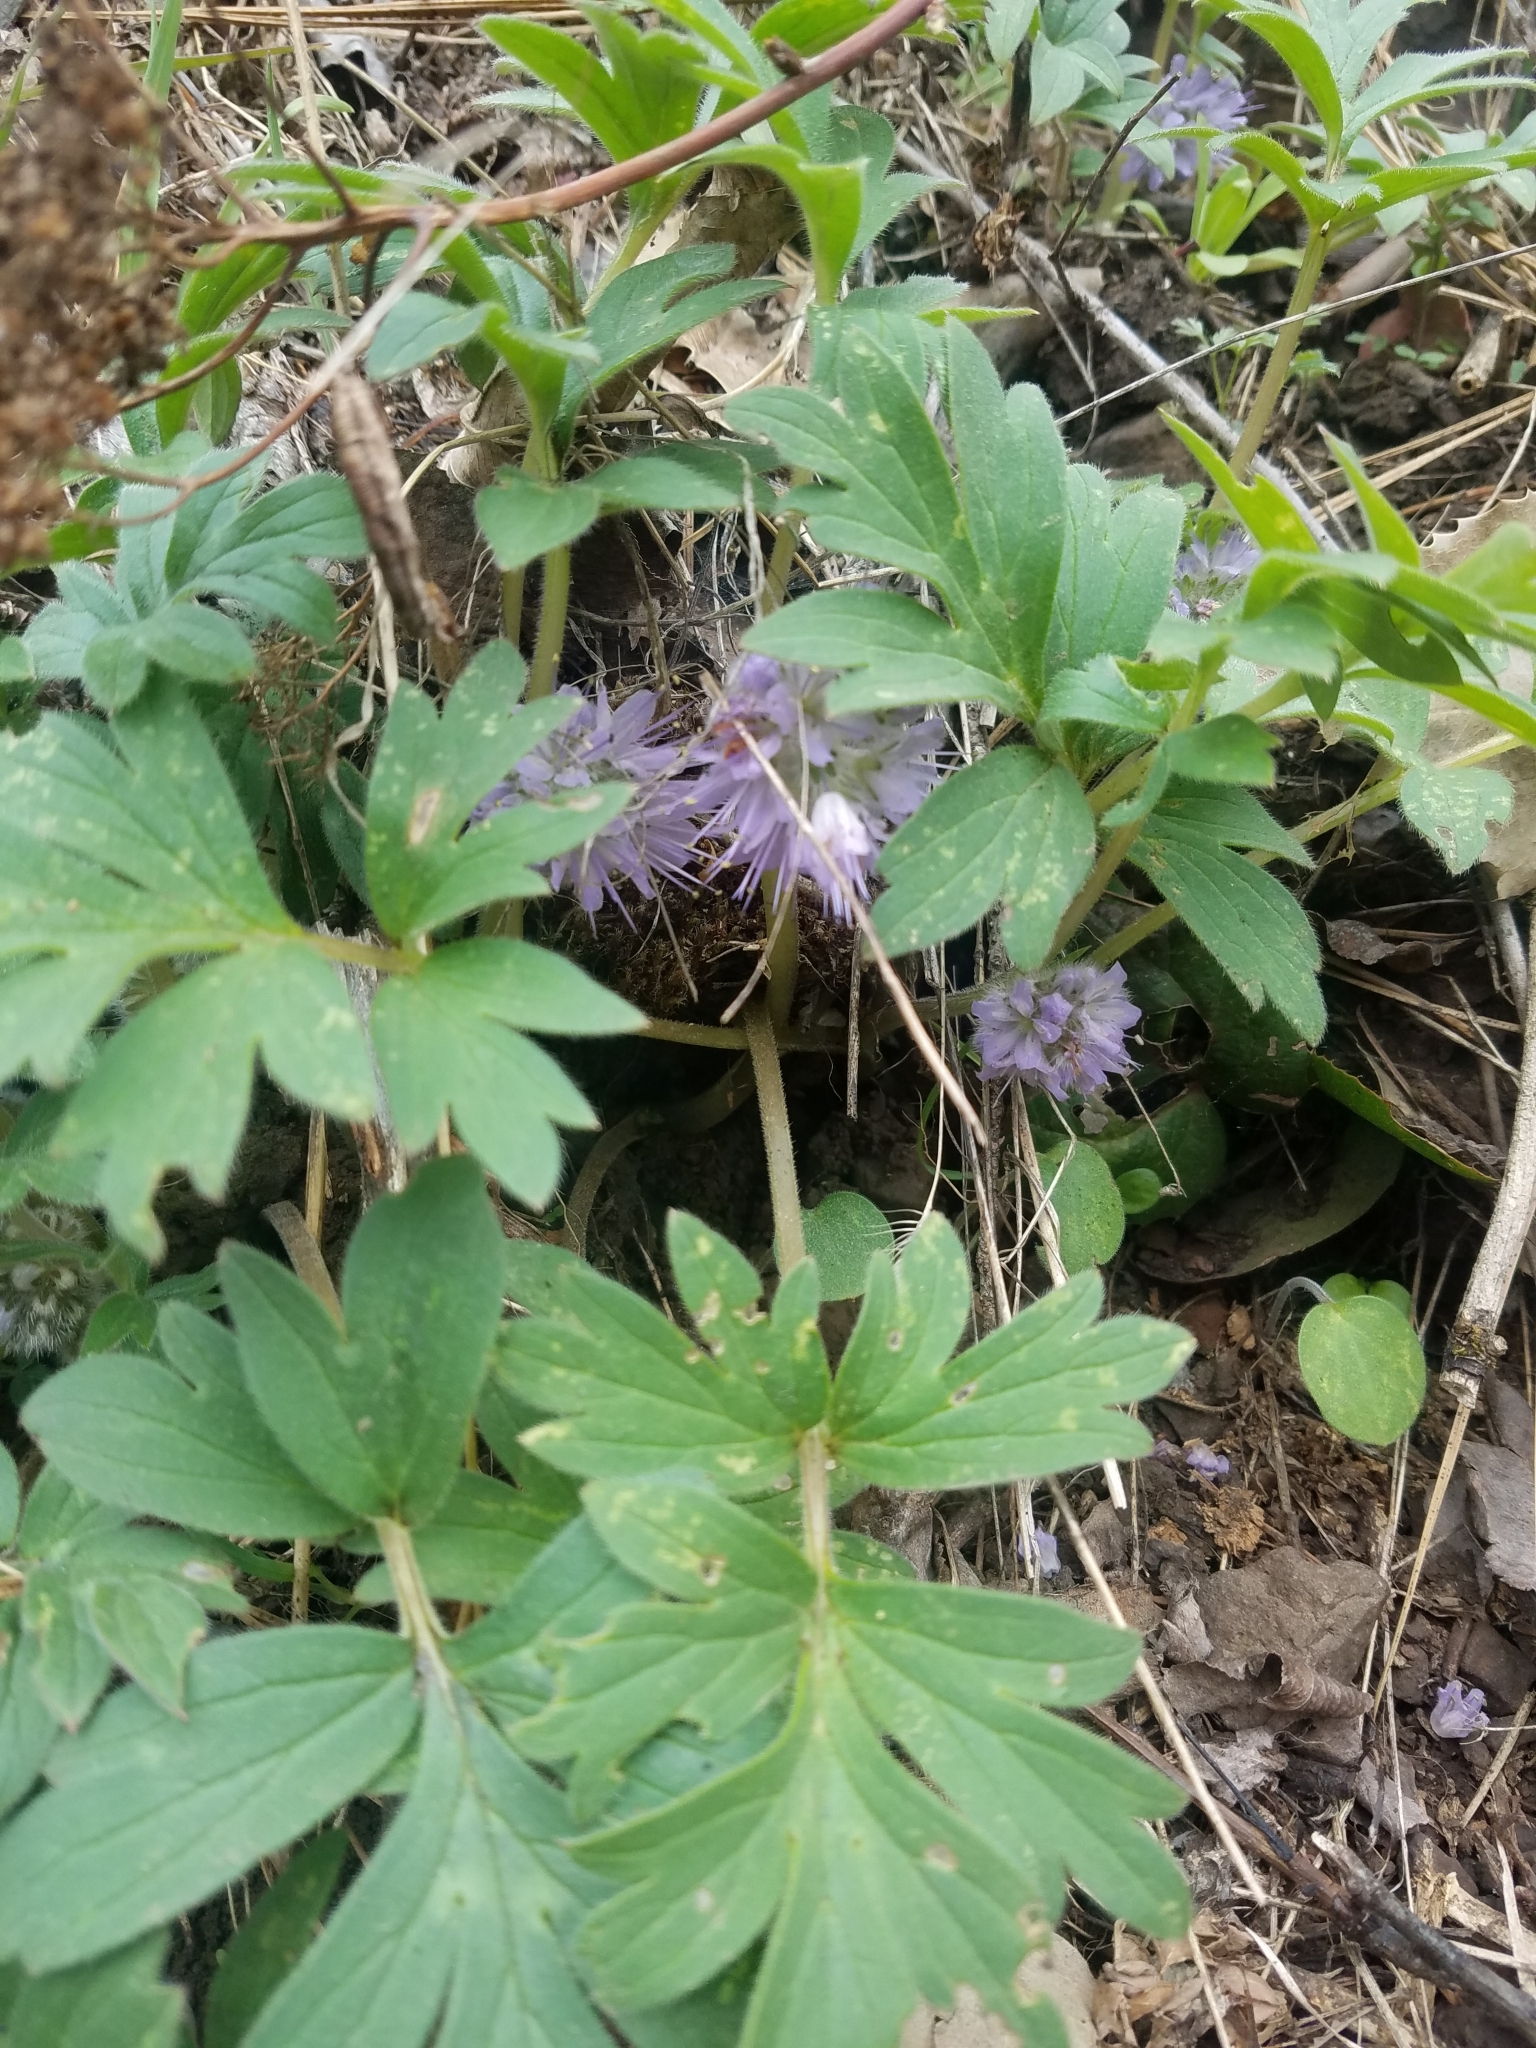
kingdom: Plantae
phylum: Tracheophyta
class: Magnoliopsida
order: Boraginales
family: Hydrophyllaceae
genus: Hydrophyllum
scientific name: Hydrophyllum capitatum
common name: Woollen-breeches
